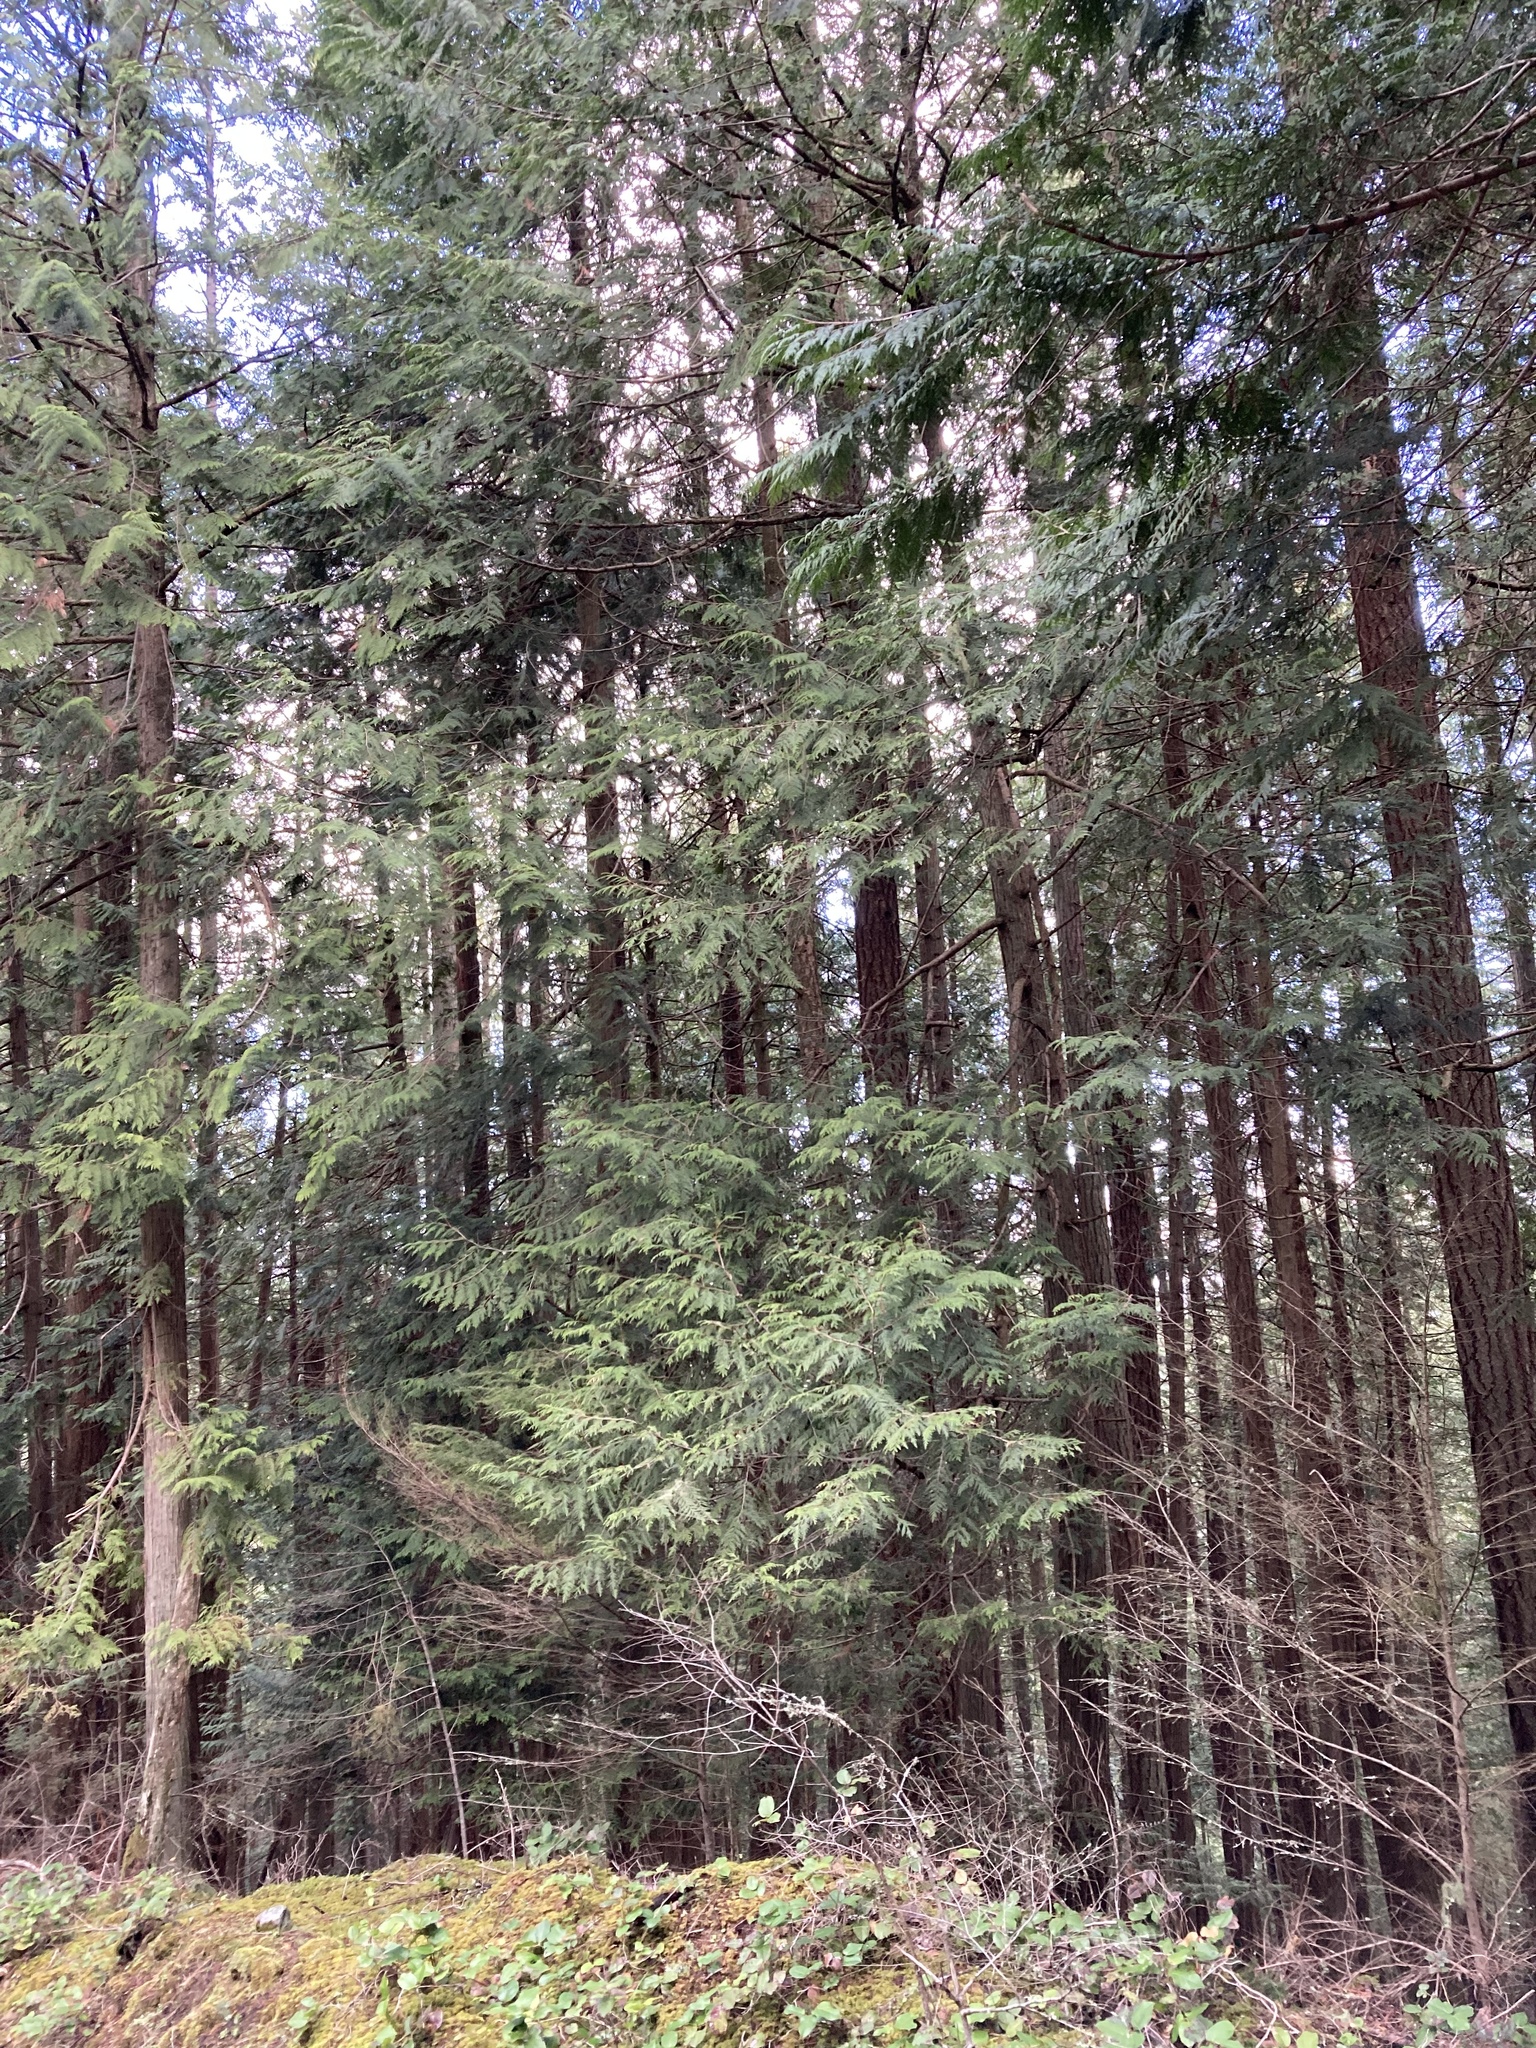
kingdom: Plantae
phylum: Tracheophyta
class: Pinopsida
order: Pinales
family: Cupressaceae
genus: Thuja
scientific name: Thuja plicata
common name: Western red-cedar
